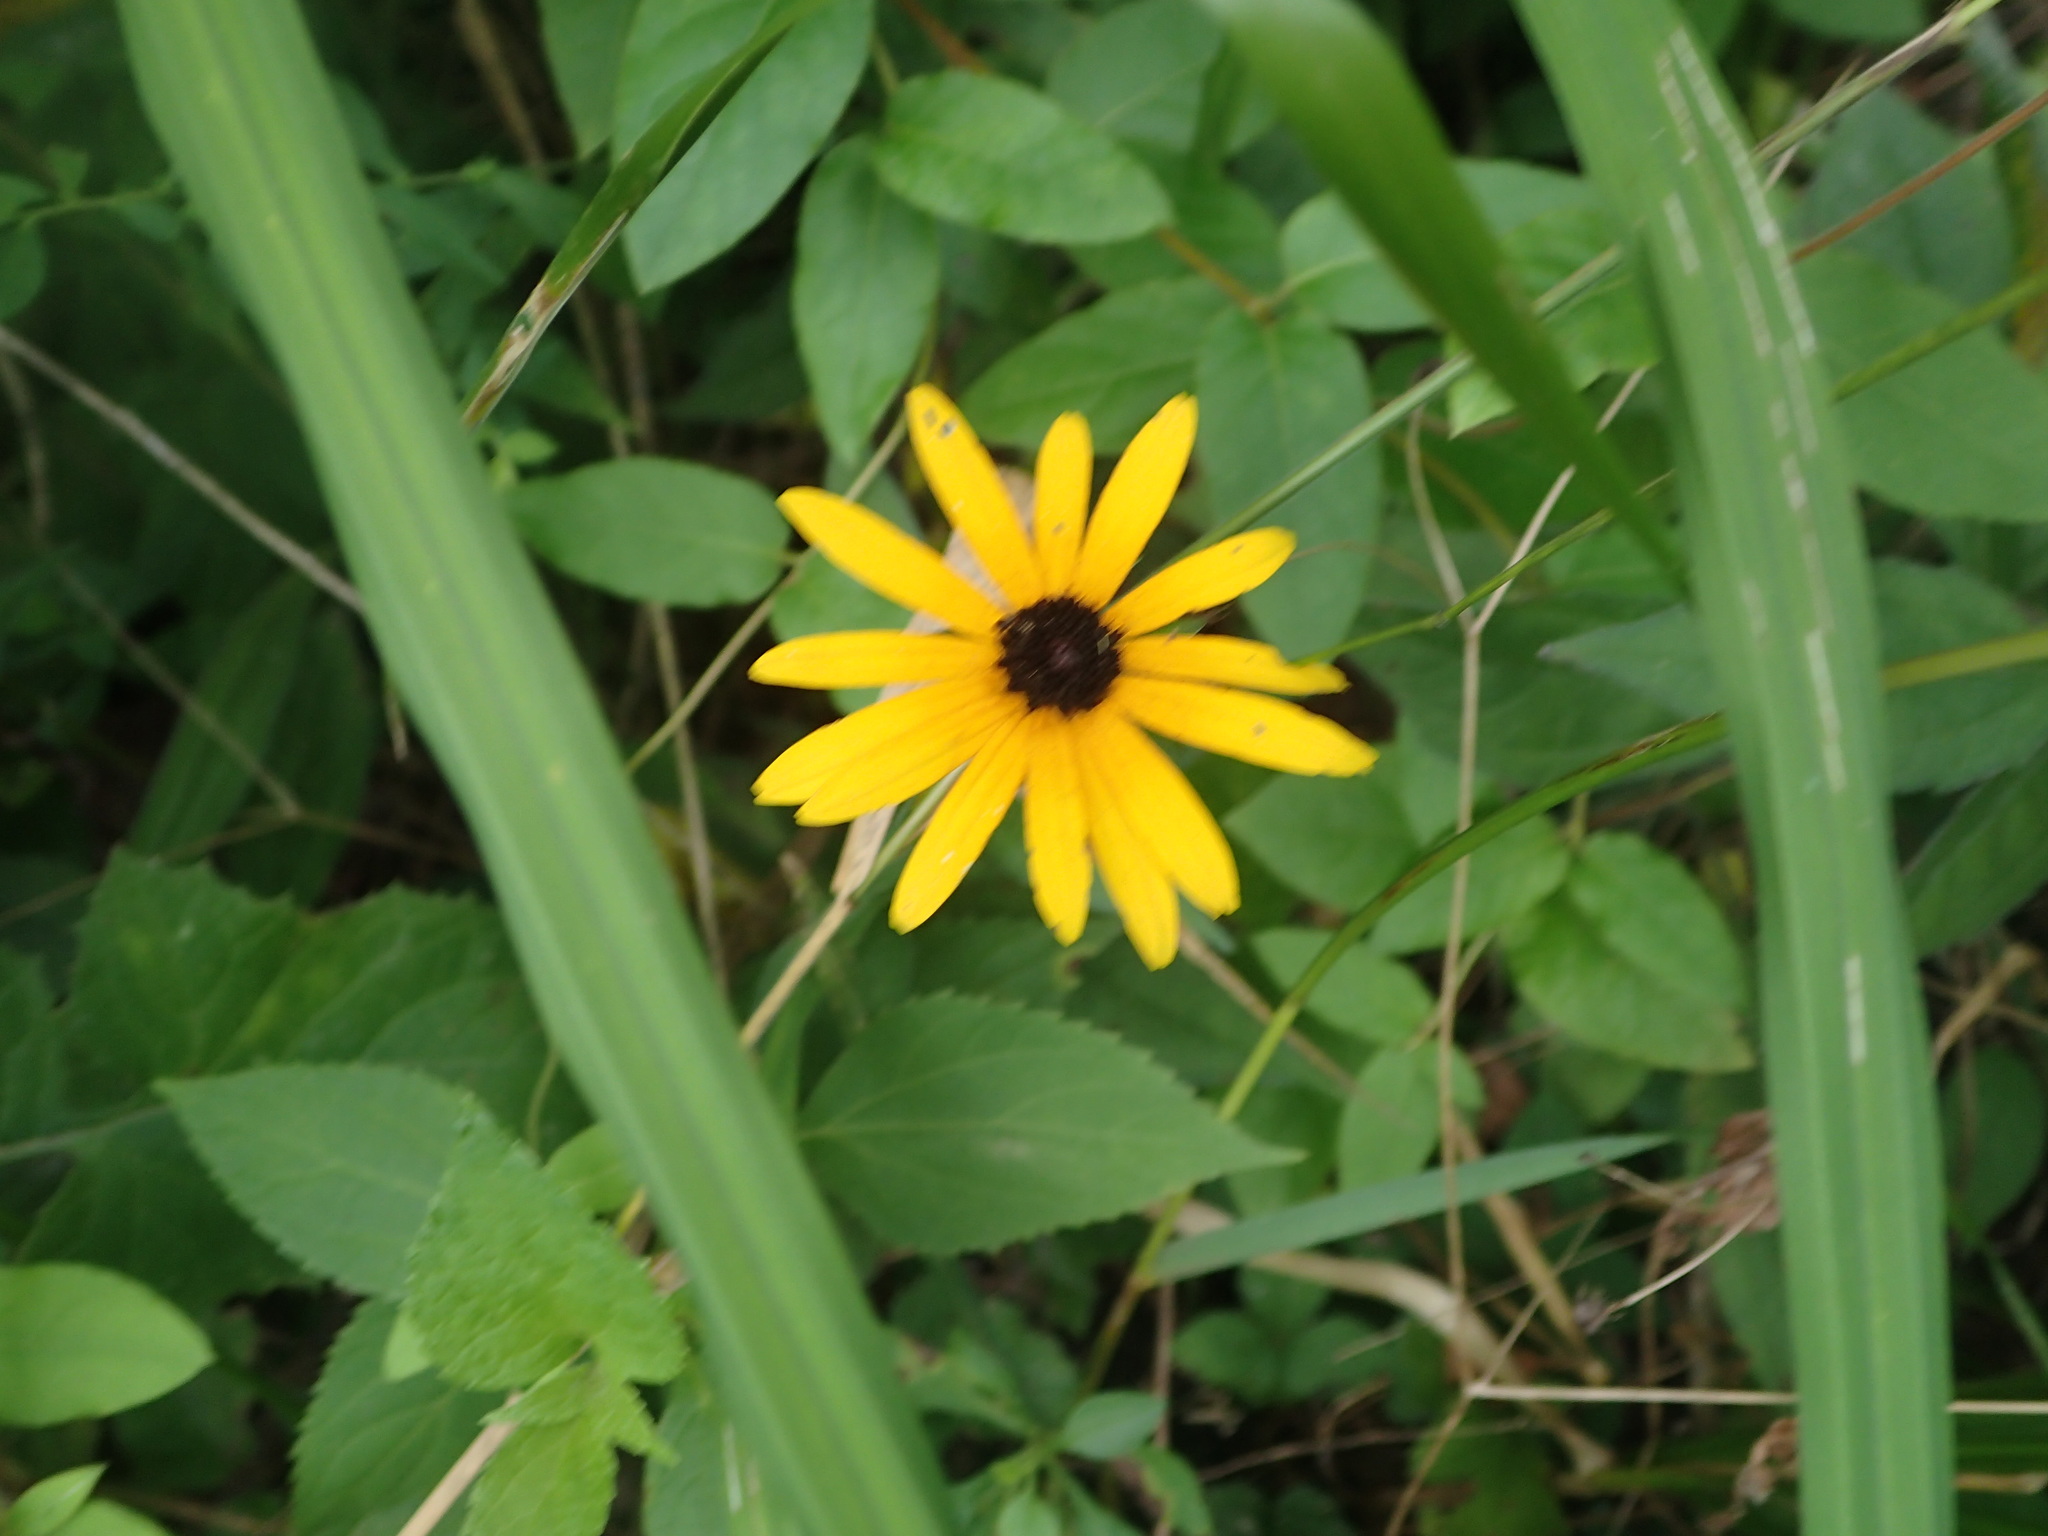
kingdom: Plantae
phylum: Tracheophyta
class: Magnoliopsida
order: Asterales
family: Asteraceae
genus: Rudbeckia
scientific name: Rudbeckia hirta
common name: Black-eyed-susan
